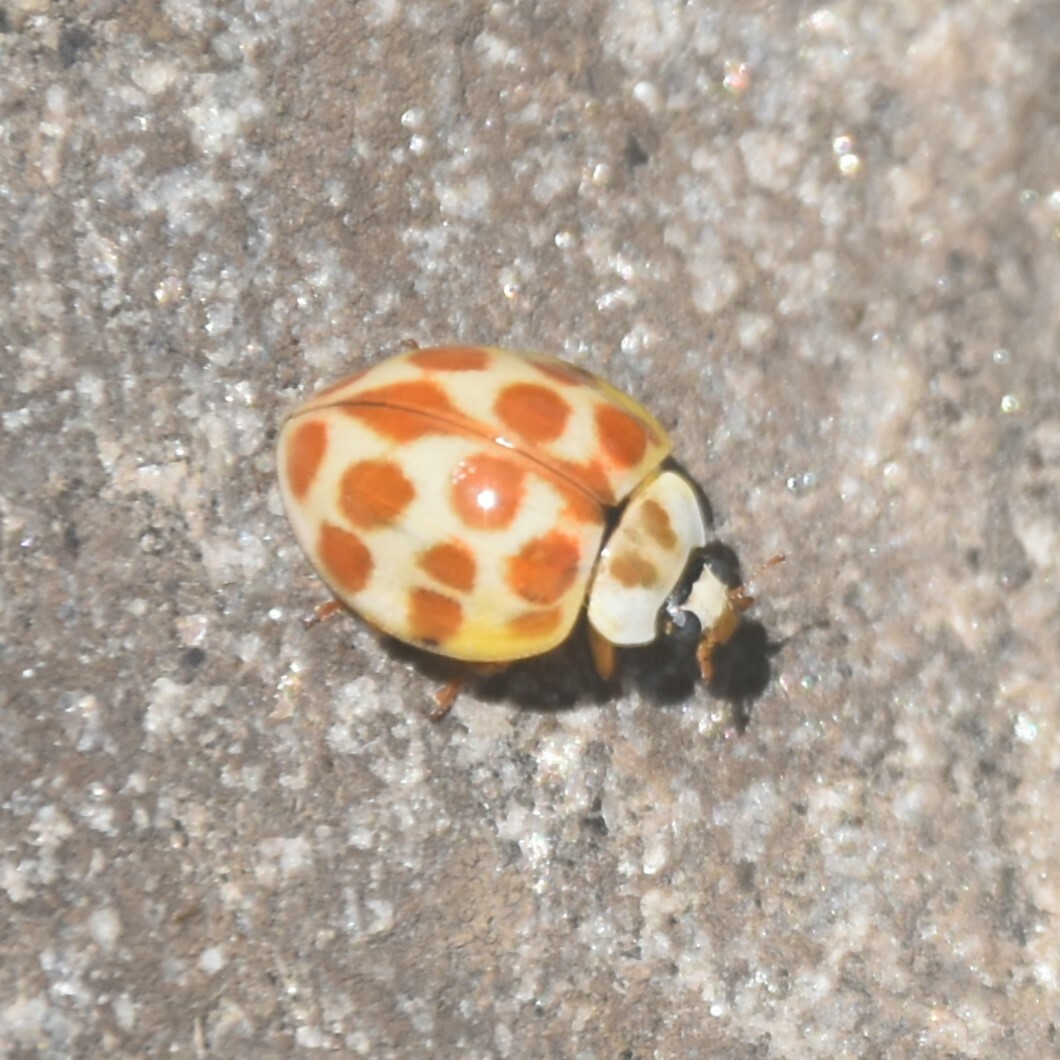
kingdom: Animalia
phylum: Arthropoda
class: Insecta
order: Coleoptera
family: Coccinellidae
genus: Harmonia
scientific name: Harmonia eucharis
